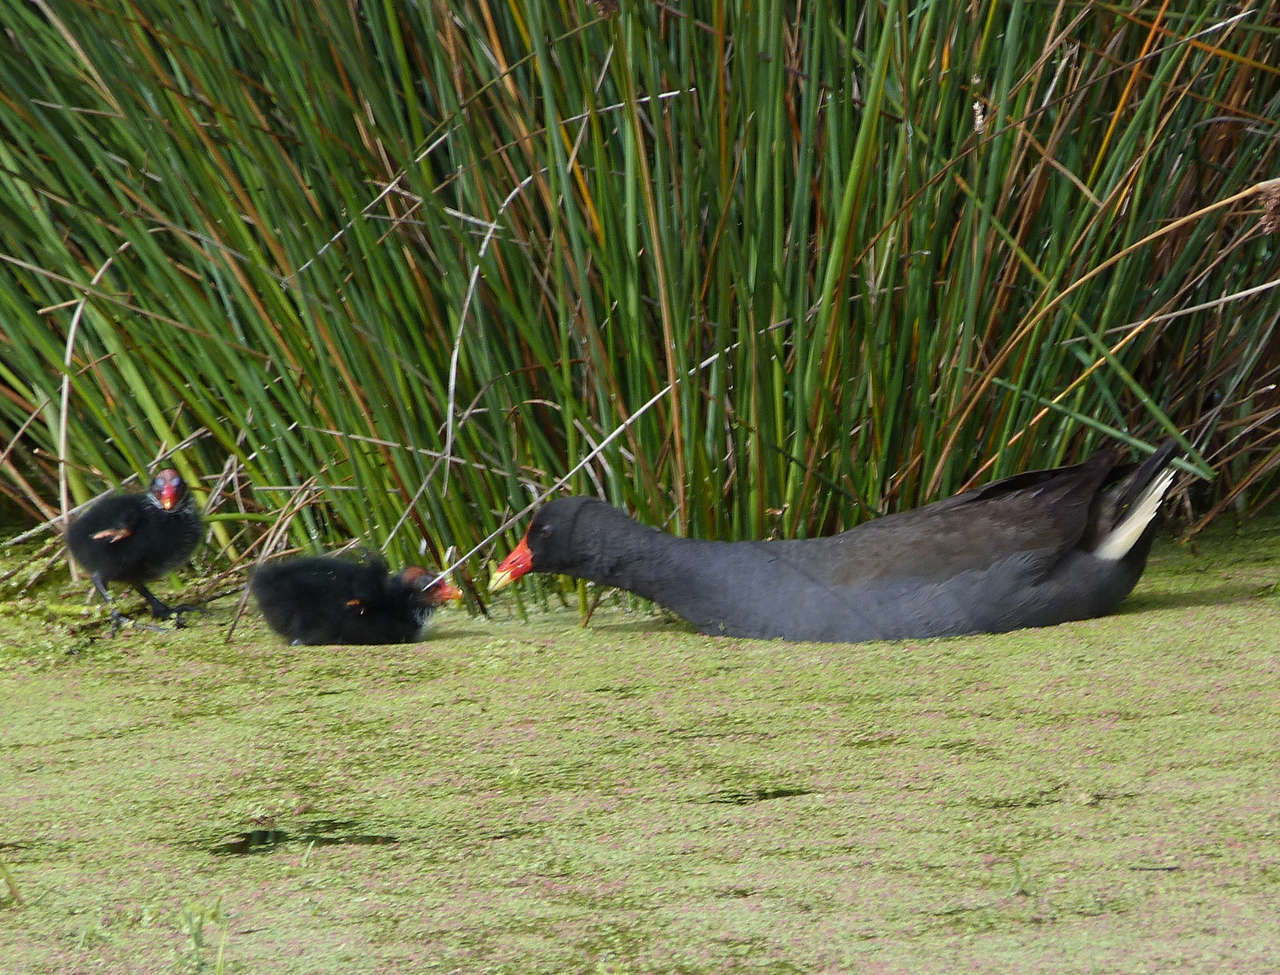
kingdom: Animalia
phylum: Chordata
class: Aves
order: Gruiformes
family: Rallidae
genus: Gallinula
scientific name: Gallinula tenebrosa
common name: Dusky moorhen
